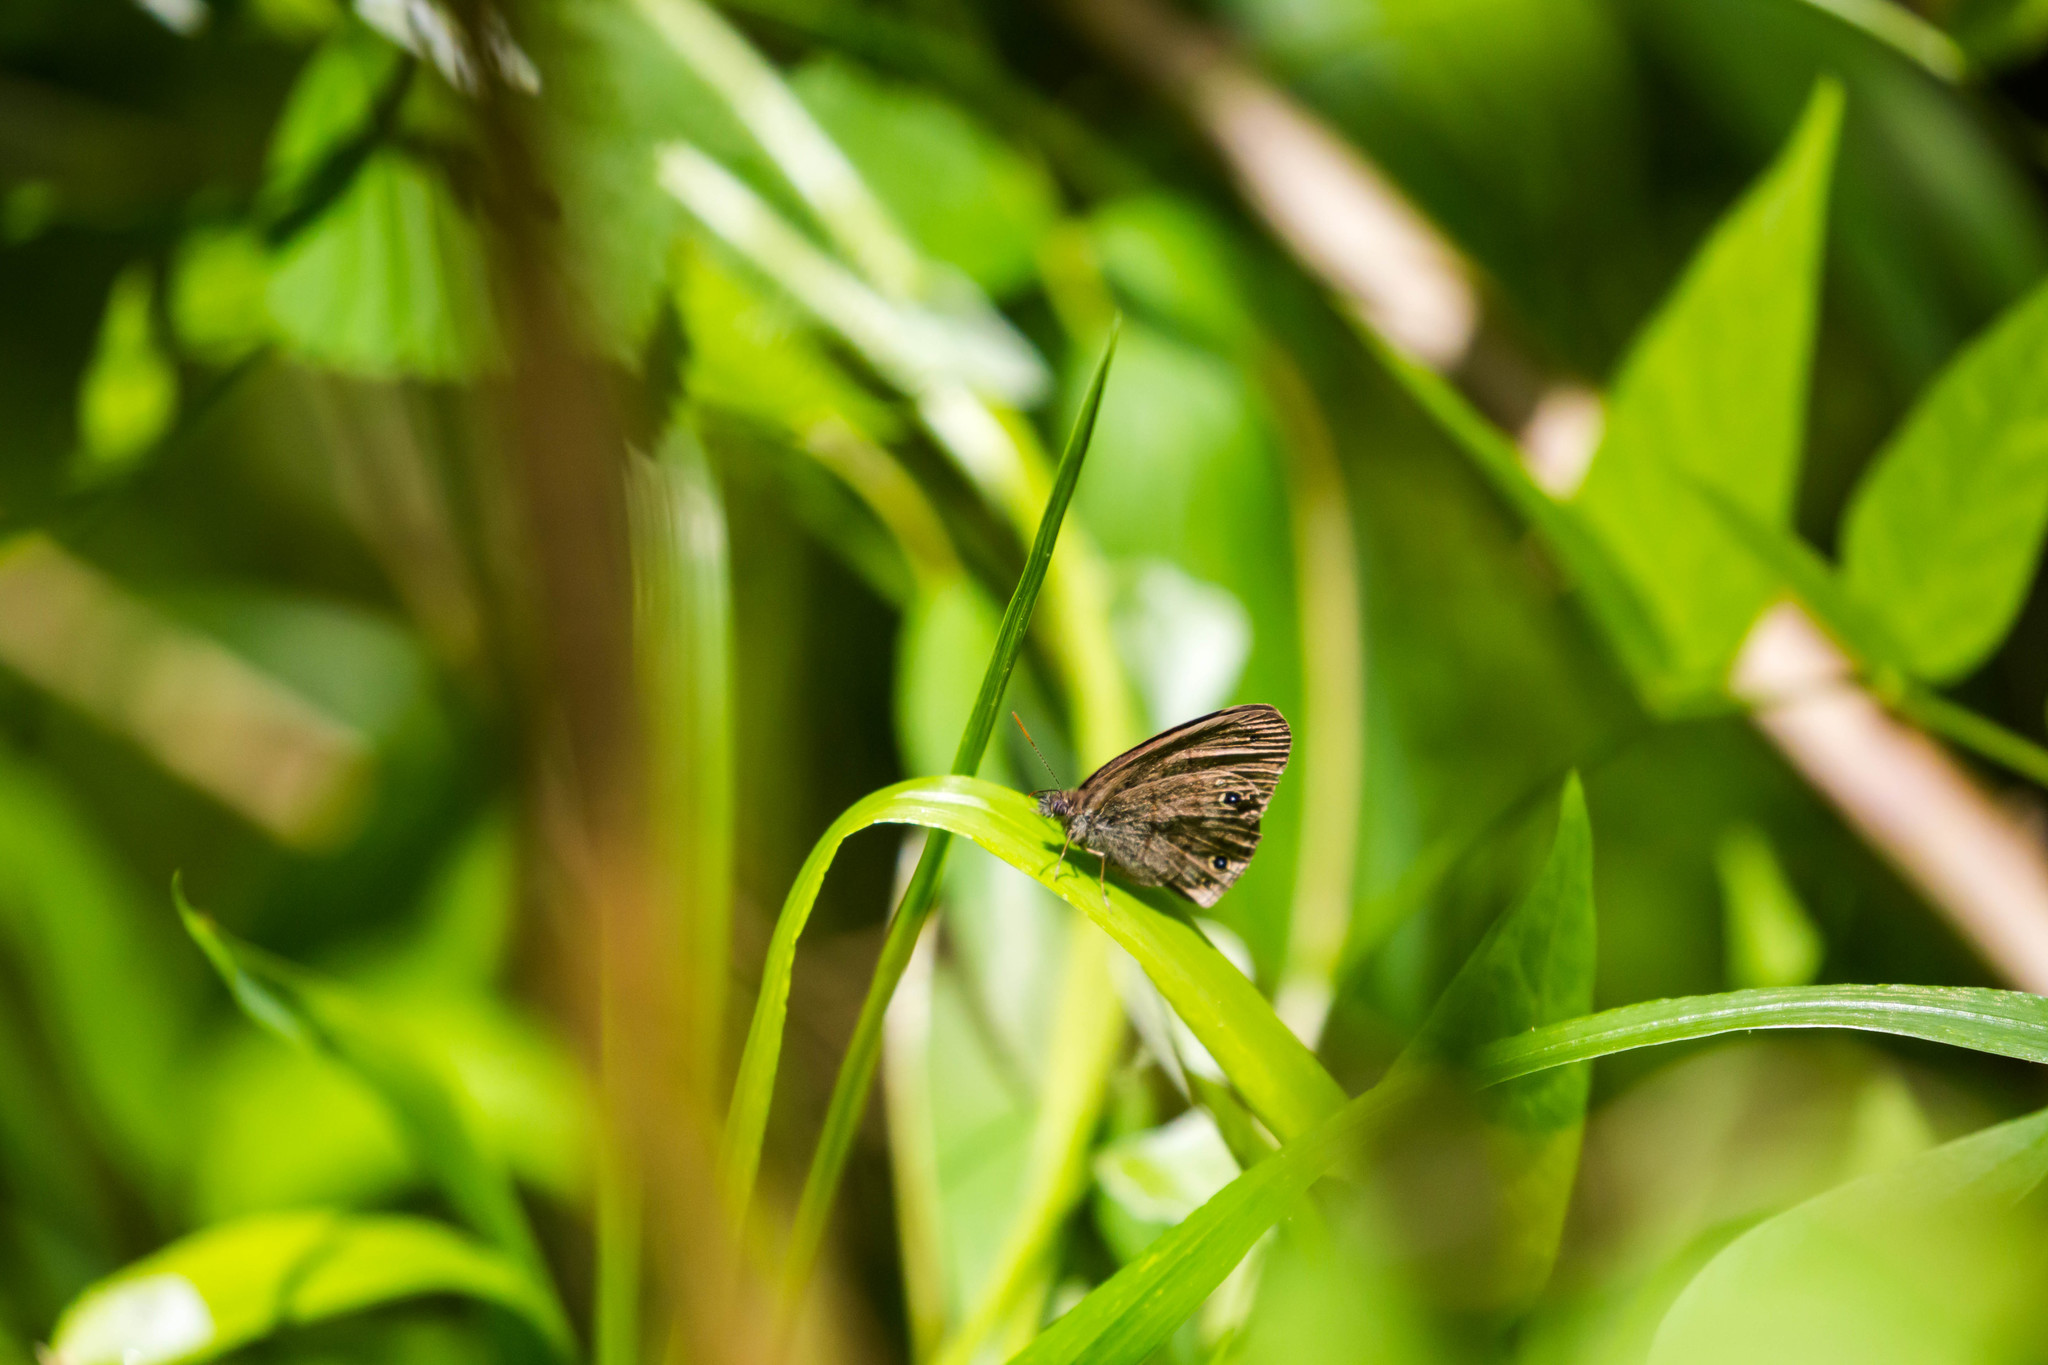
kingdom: Animalia
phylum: Arthropoda
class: Insecta
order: Lepidoptera
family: Nymphalidae
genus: Hermeuptychia
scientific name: Hermeuptychia hermes
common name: Hermes satyr
